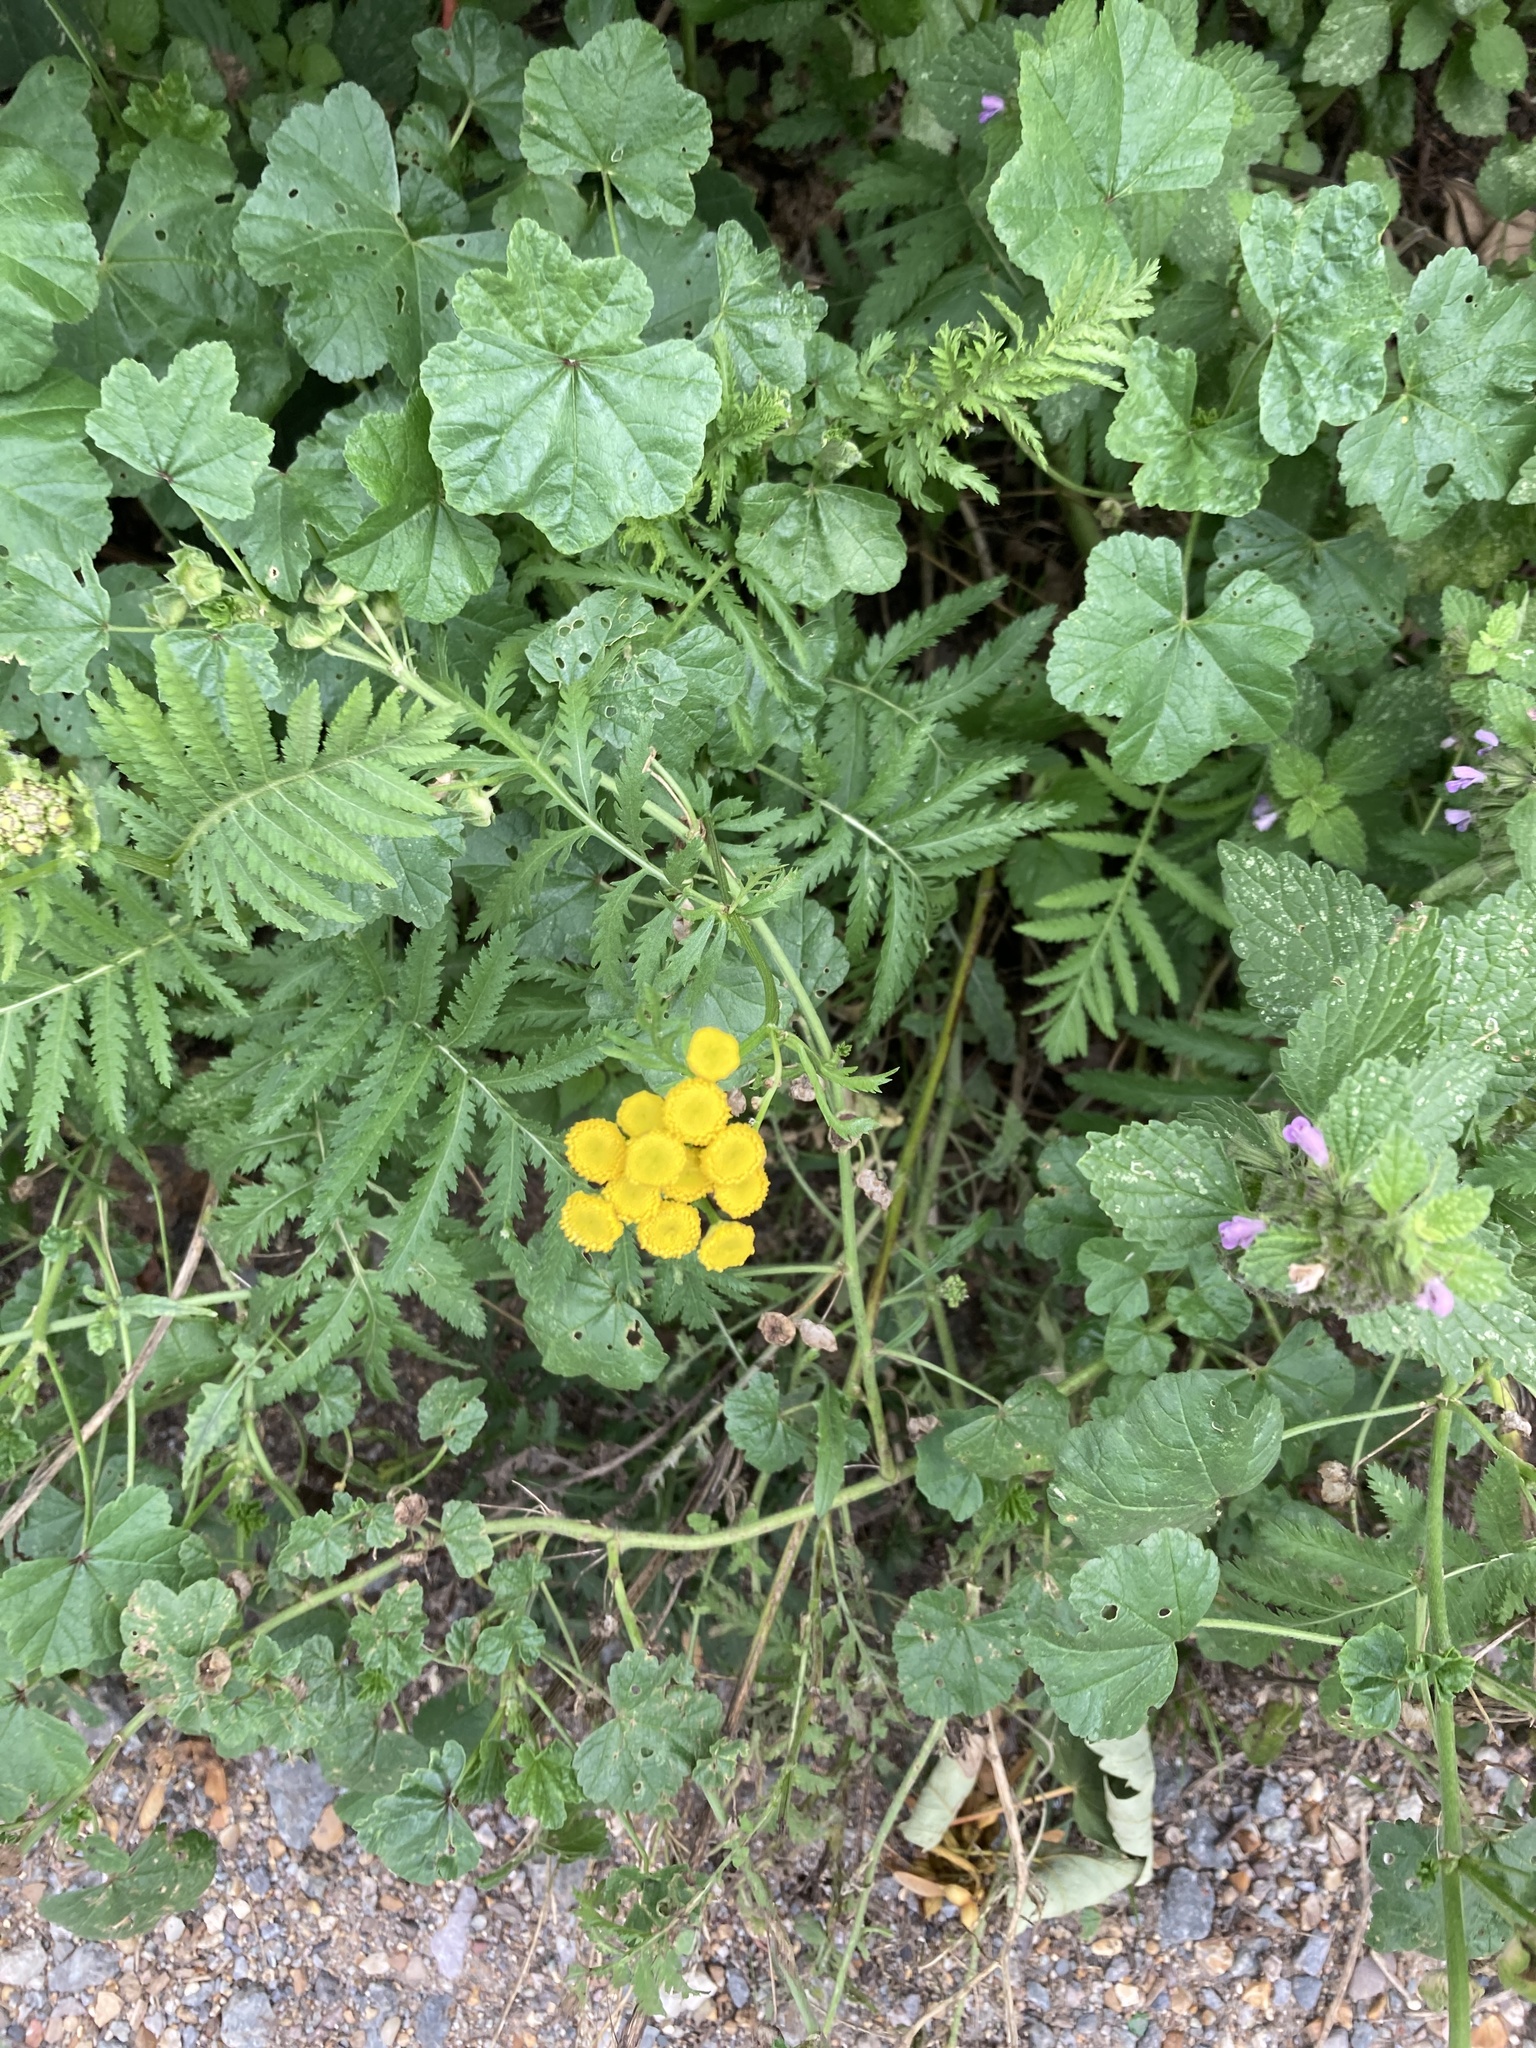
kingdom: Plantae
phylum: Tracheophyta
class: Magnoliopsida
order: Asterales
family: Asteraceae
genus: Tanacetum
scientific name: Tanacetum vulgare
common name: Common tansy
